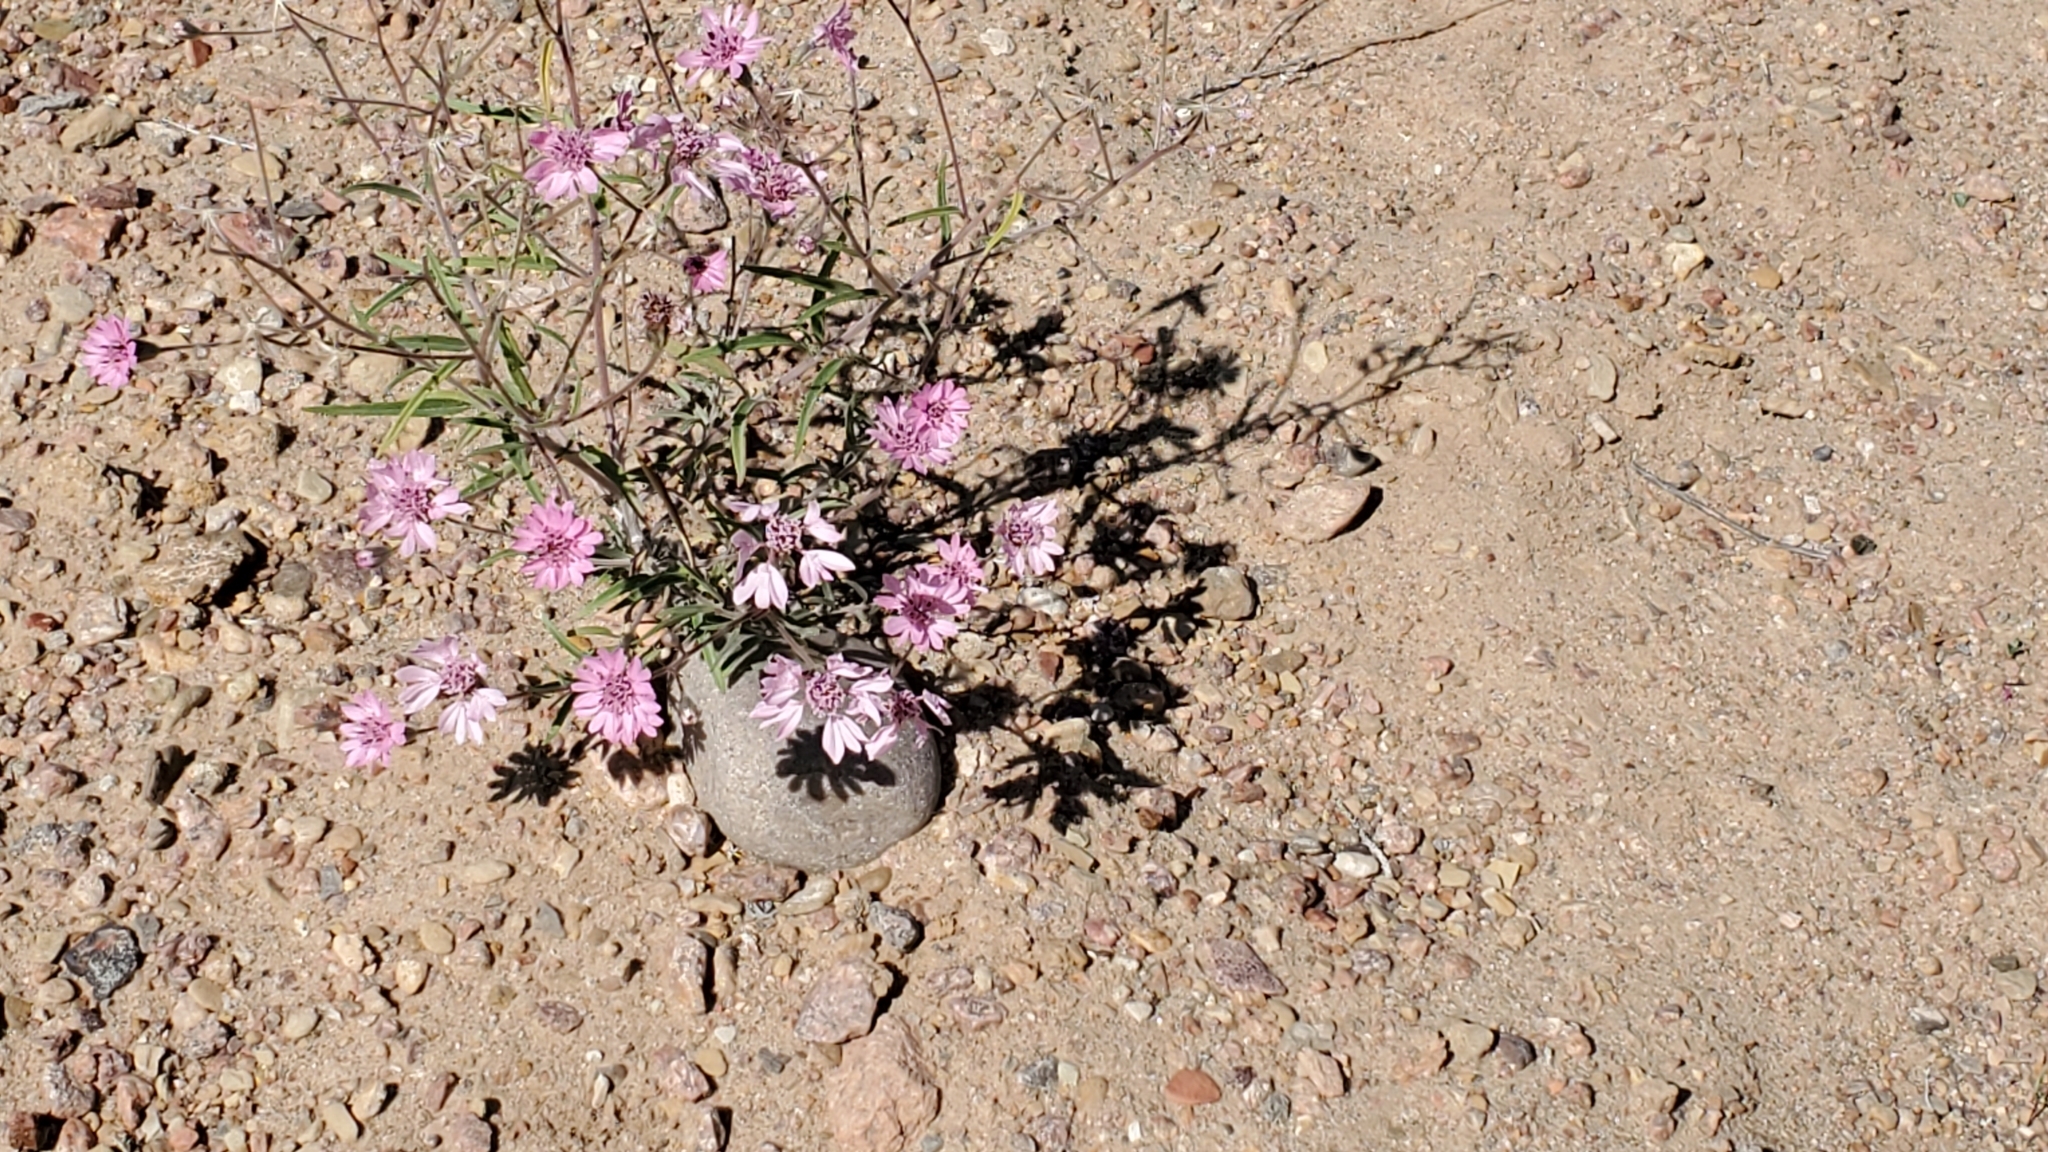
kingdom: Plantae
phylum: Tracheophyta
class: Magnoliopsida
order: Asterales
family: Asteraceae
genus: Palafoxia
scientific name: Palafoxia sphacelata
